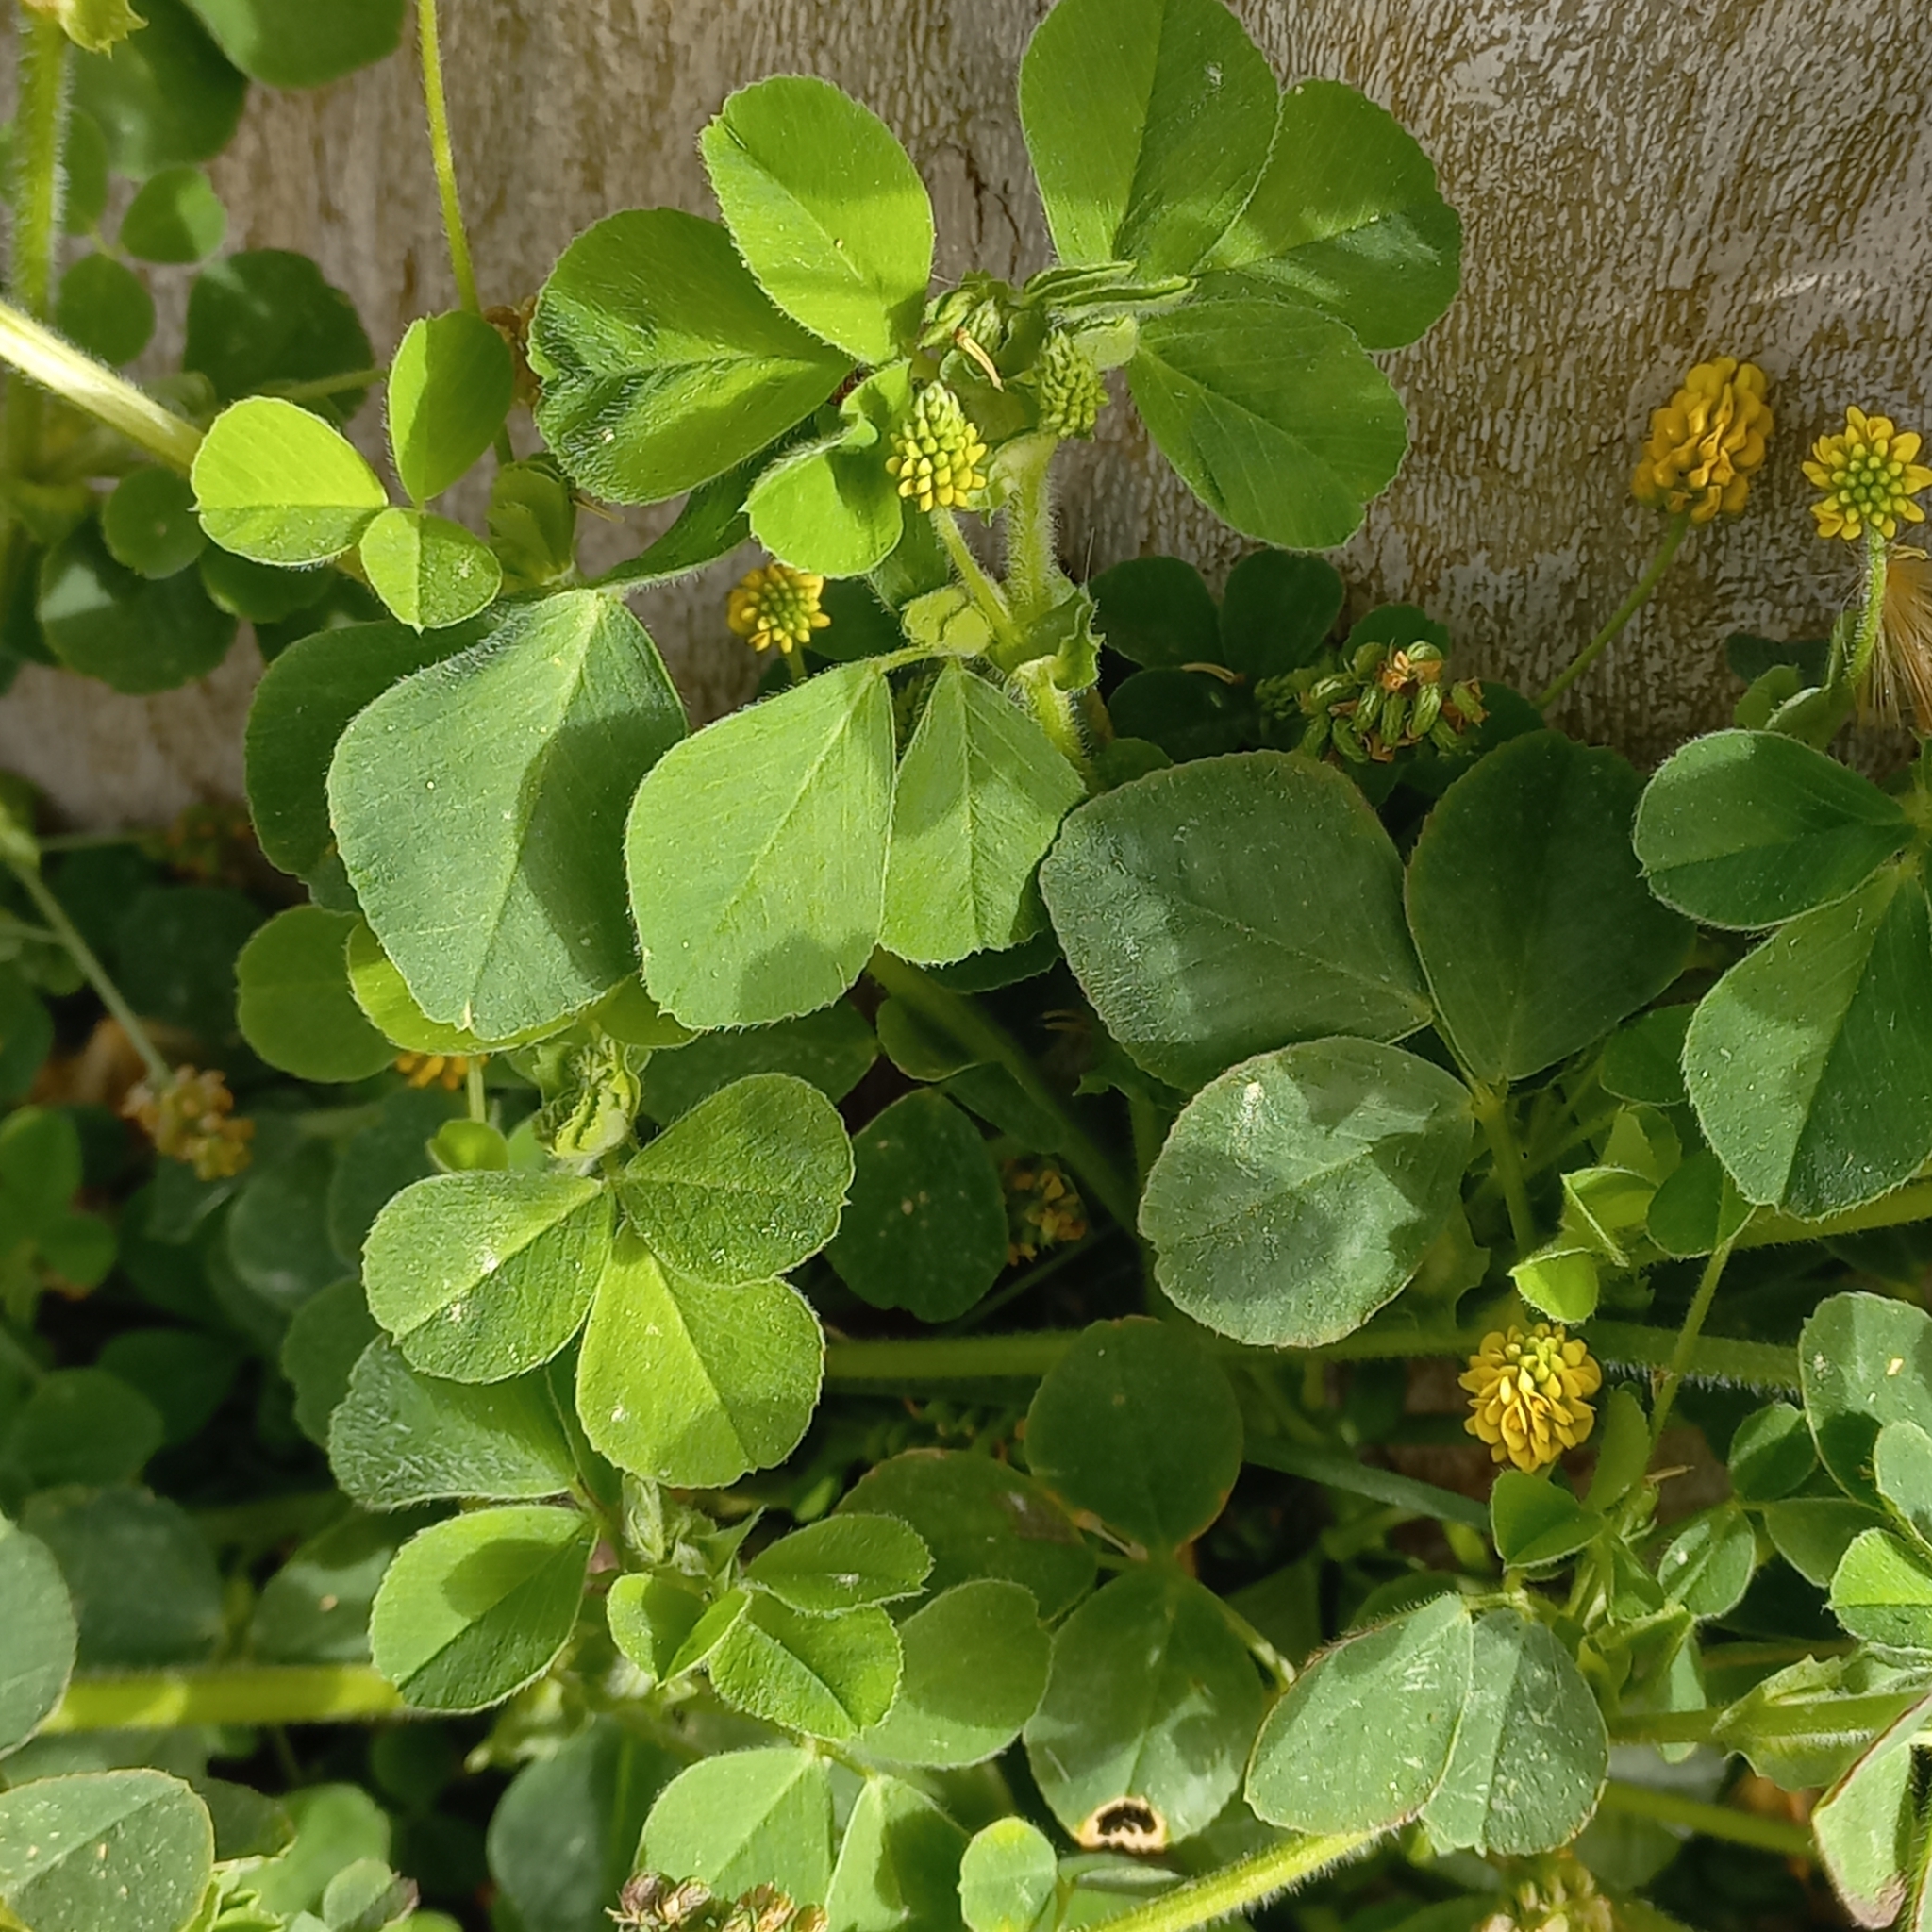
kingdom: Plantae
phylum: Tracheophyta
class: Magnoliopsida
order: Fabales
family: Fabaceae
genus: Medicago
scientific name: Medicago lupulina
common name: Black medick
